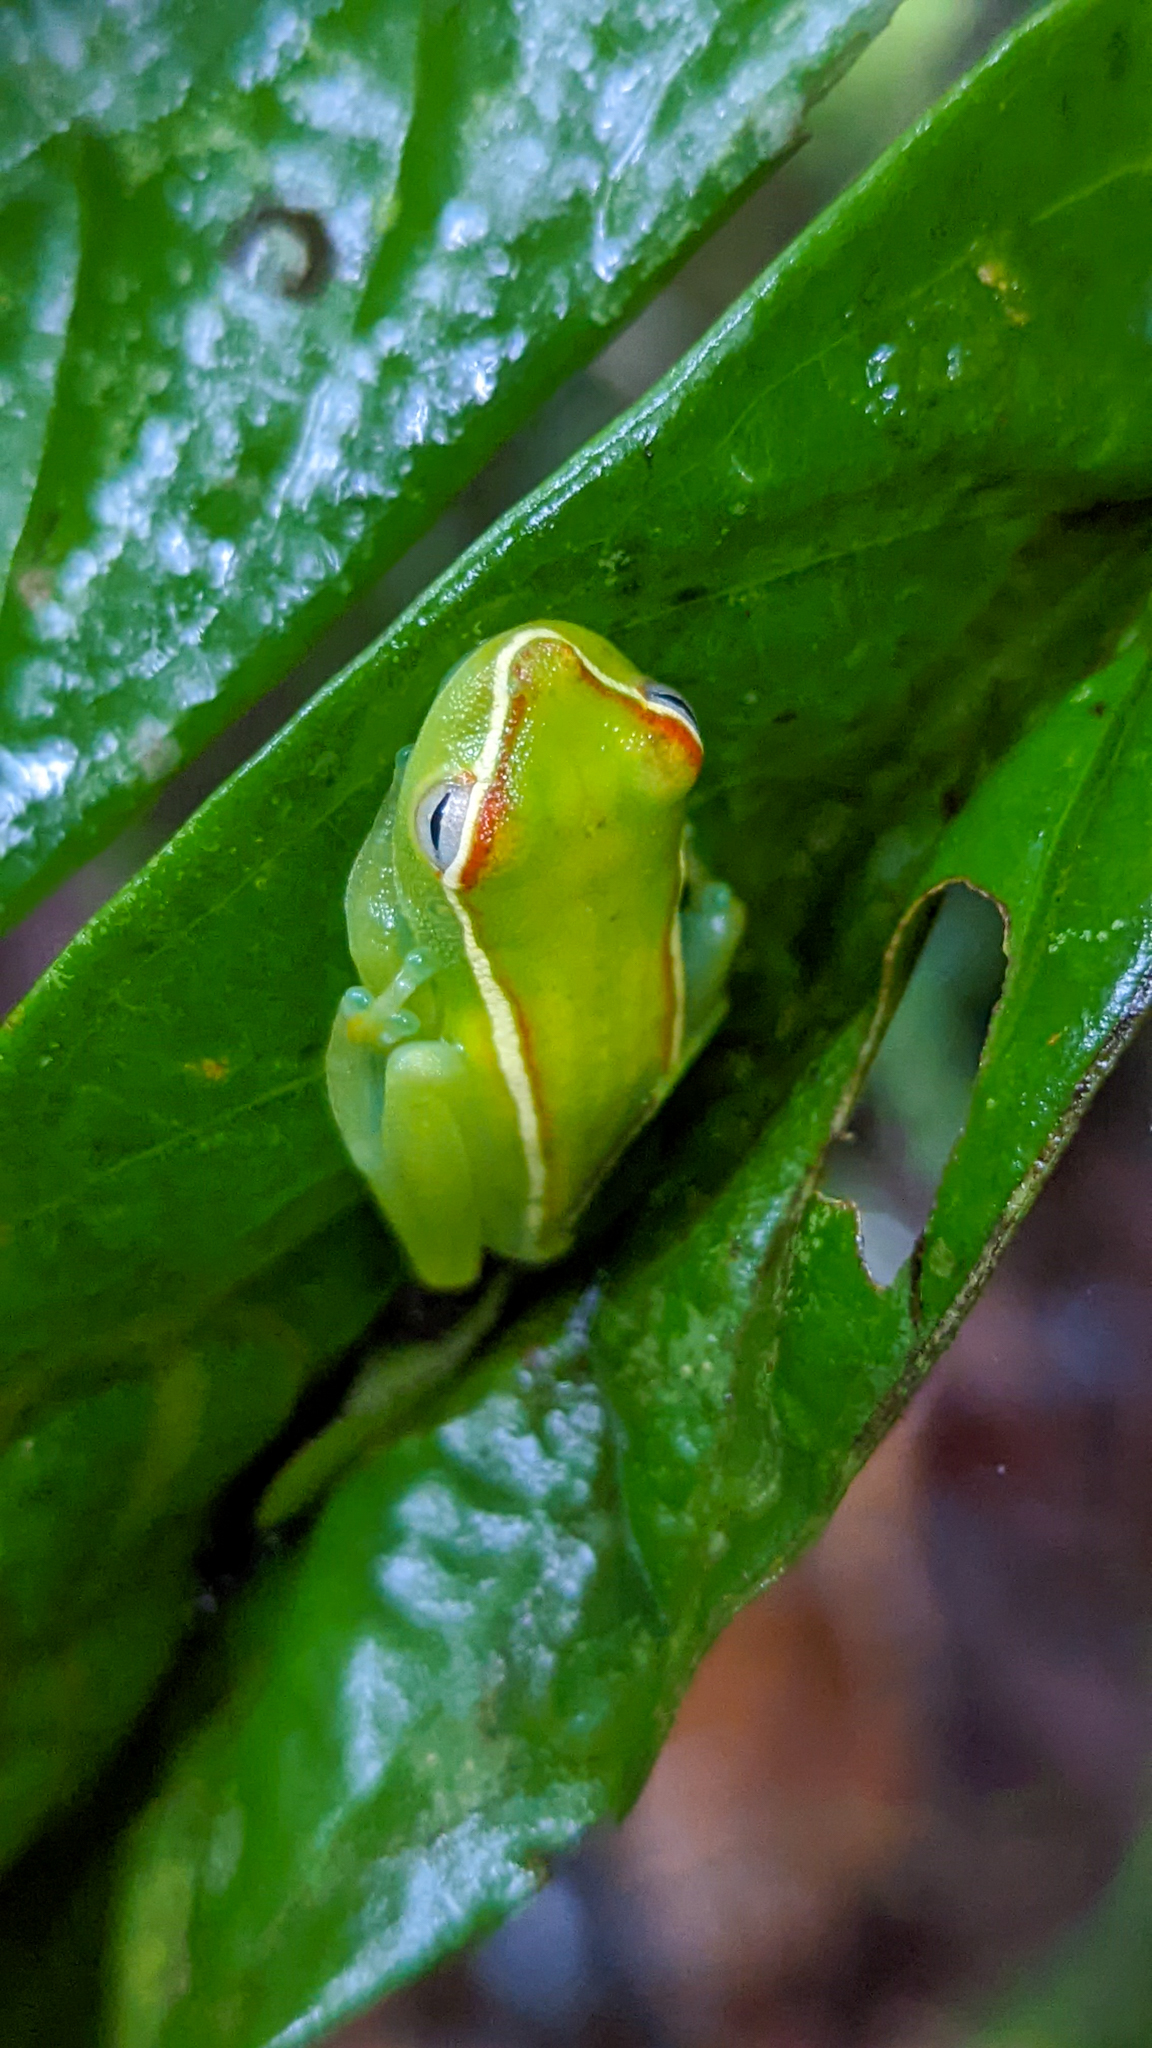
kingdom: Animalia
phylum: Chordata
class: Amphibia
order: Anura
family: Hylidae
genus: Boana
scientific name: Boana rufitela
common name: Canal zone treefrog
